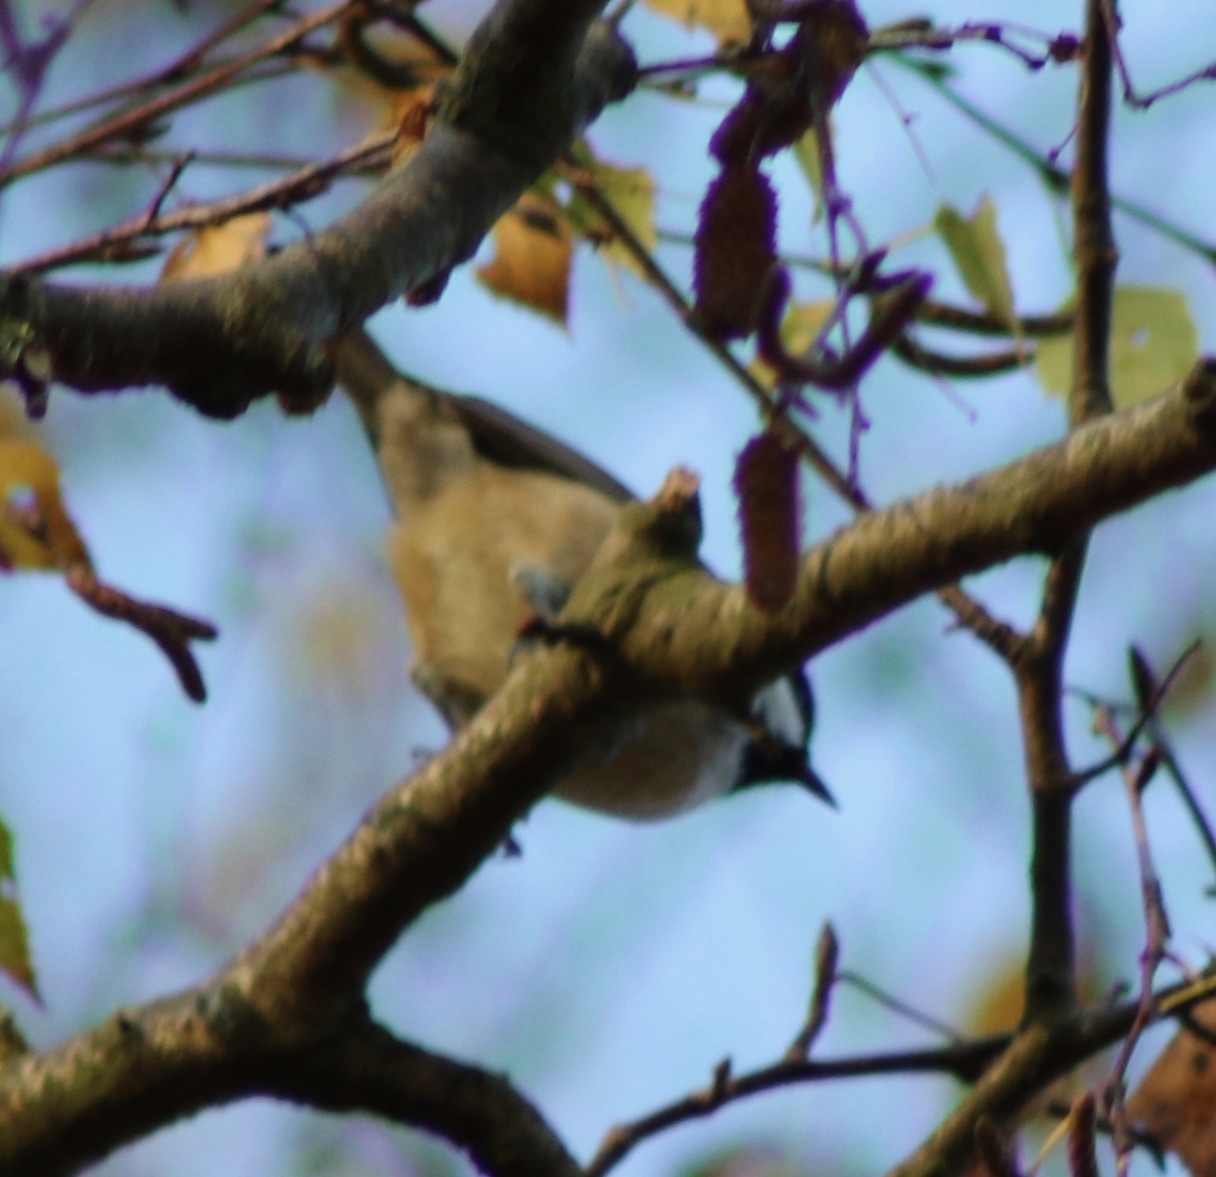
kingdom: Animalia
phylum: Chordata
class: Aves
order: Passeriformes
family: Paridae
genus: Periparus
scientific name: Periparus ater
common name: Coal tit
